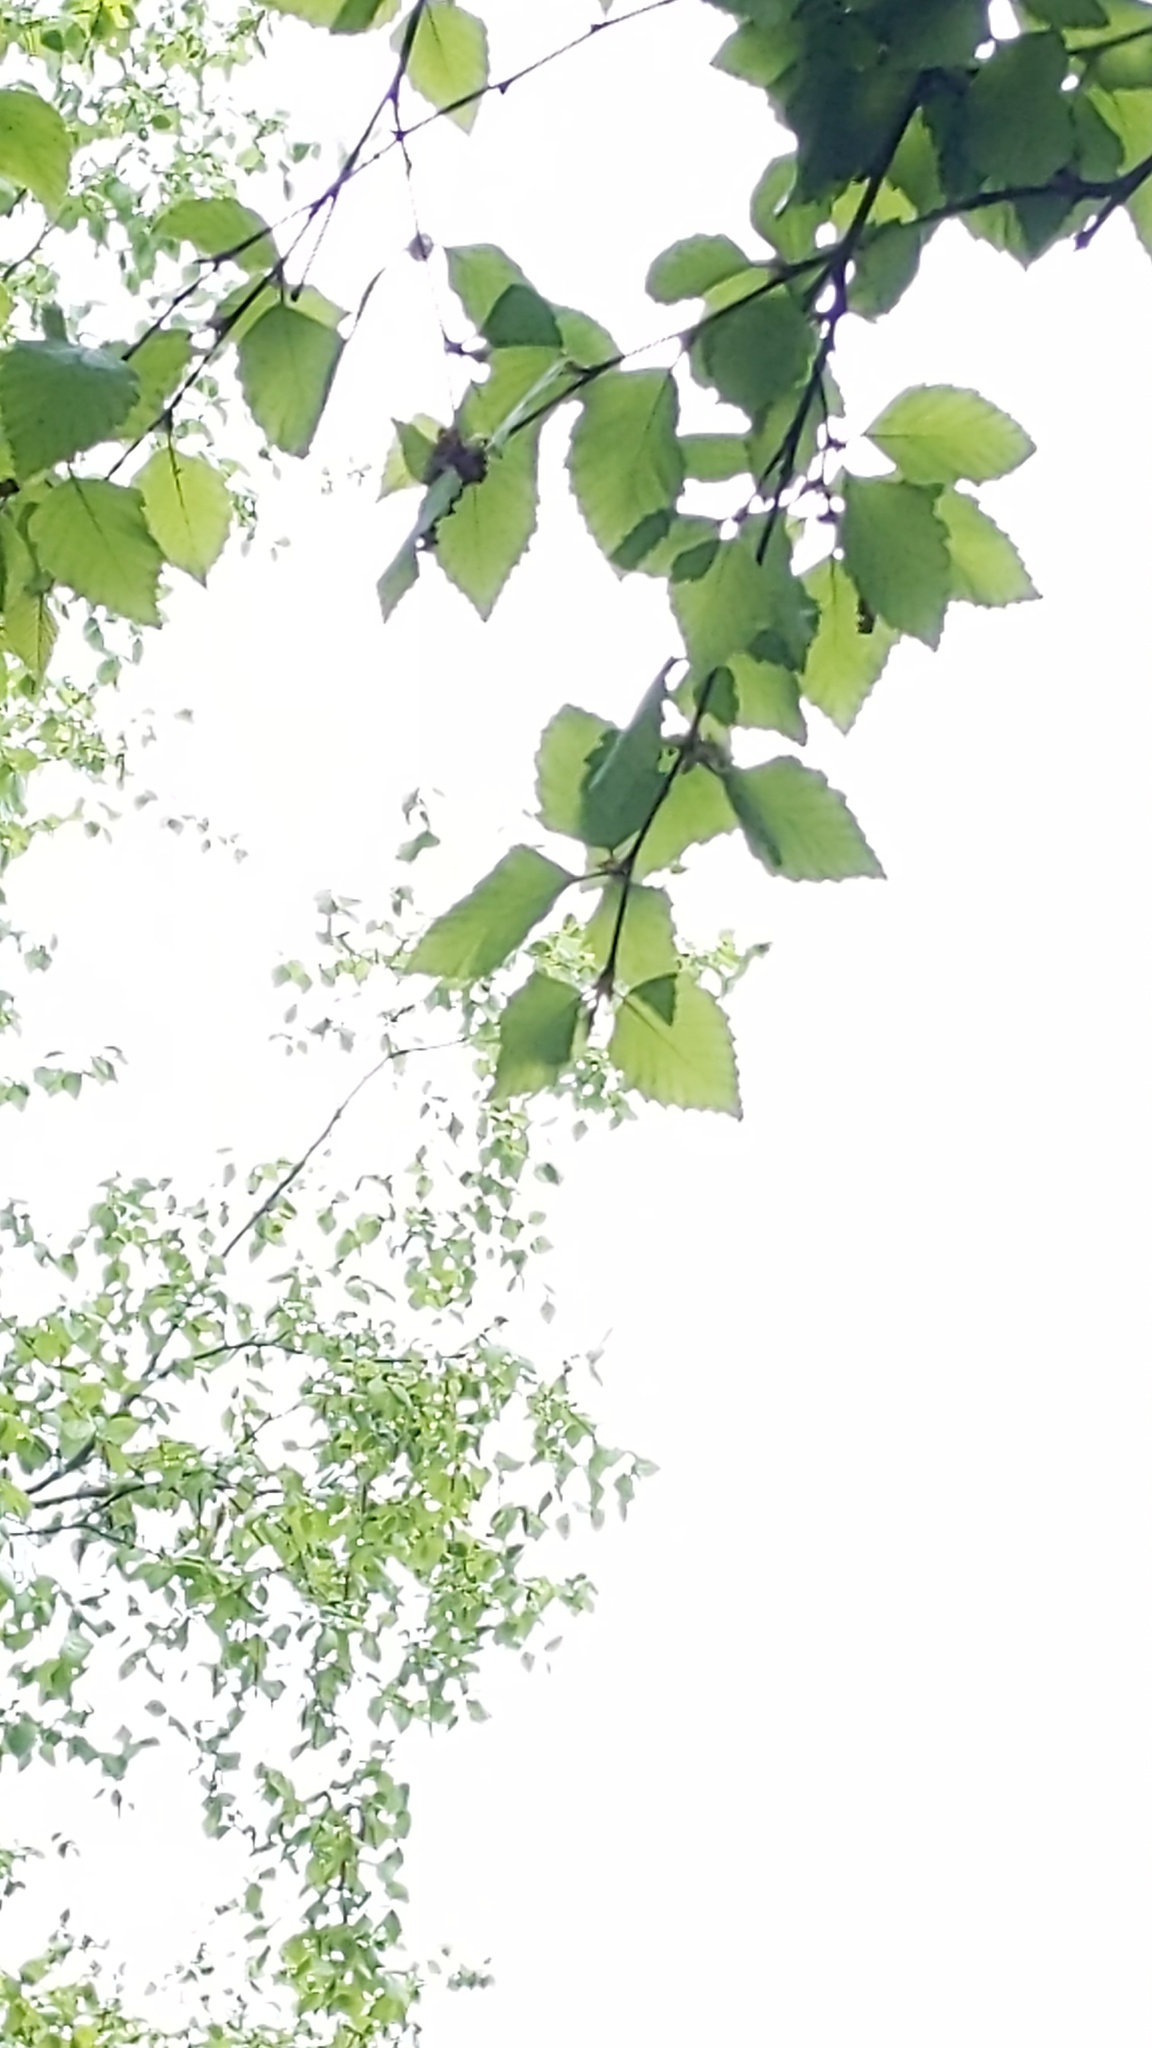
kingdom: Plantae
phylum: Tracheophyta
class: Magnoliopsida
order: Fagales
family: Betulaceae
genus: Betula
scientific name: Betula nigra
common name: Black birch
